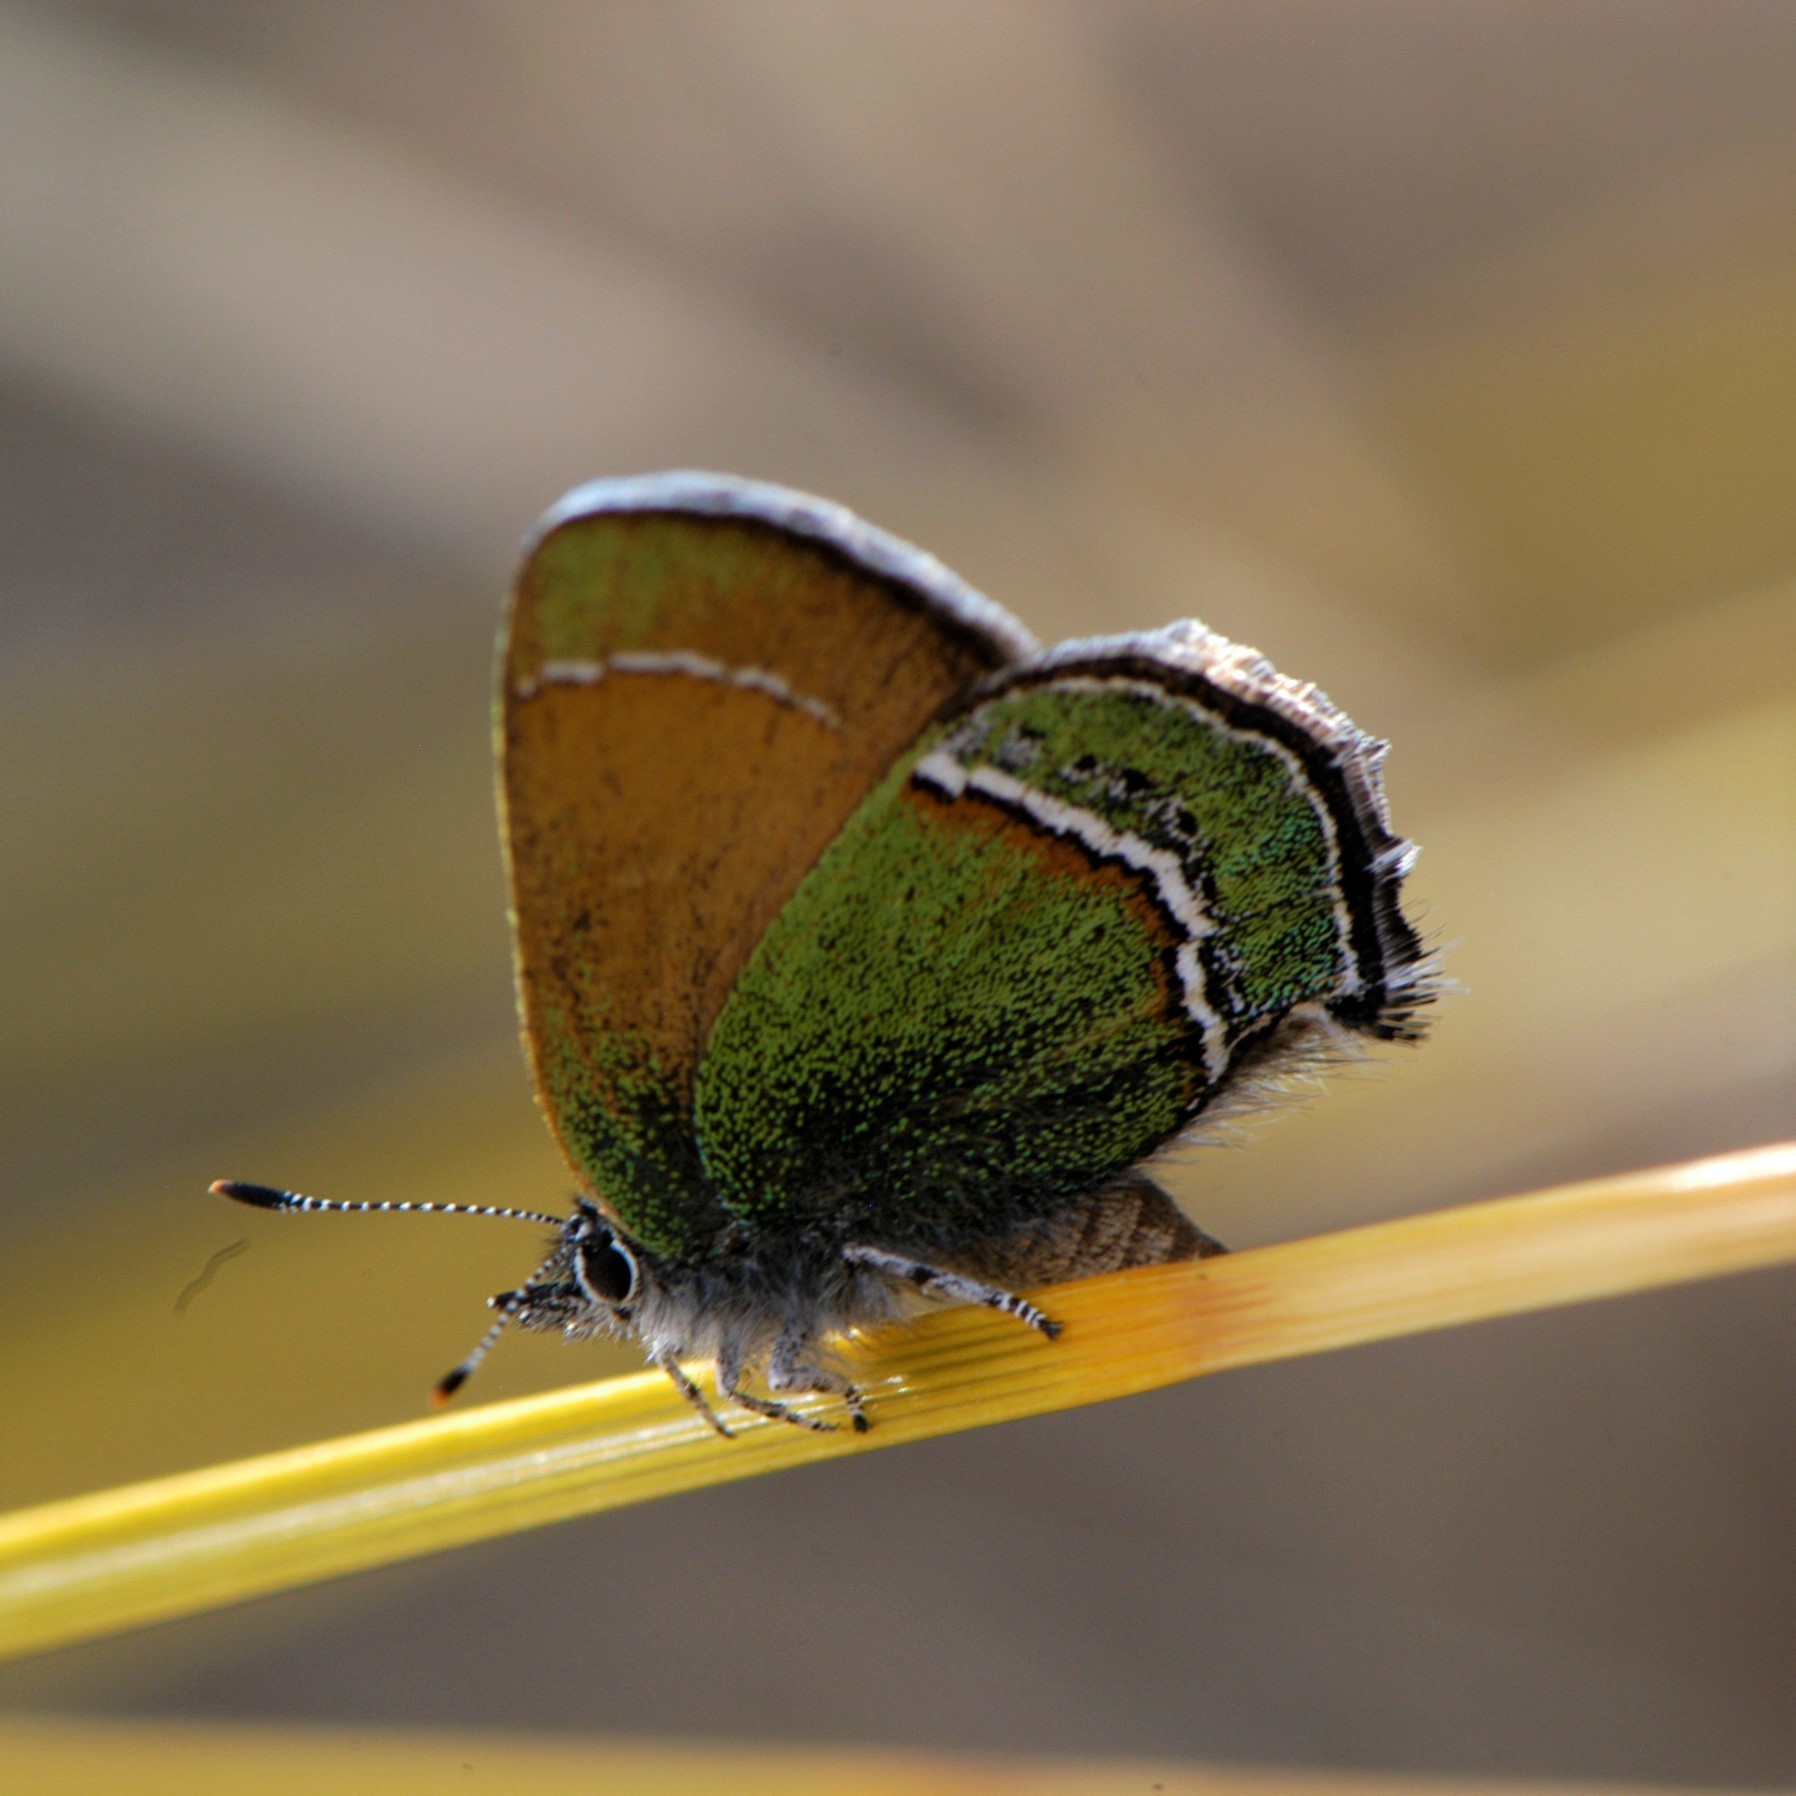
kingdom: Animalia
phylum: Arthropoda
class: Insecta
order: Lepidoptera
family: Lycaenidae
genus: Sandia
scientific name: Sandia mcfarlandi
